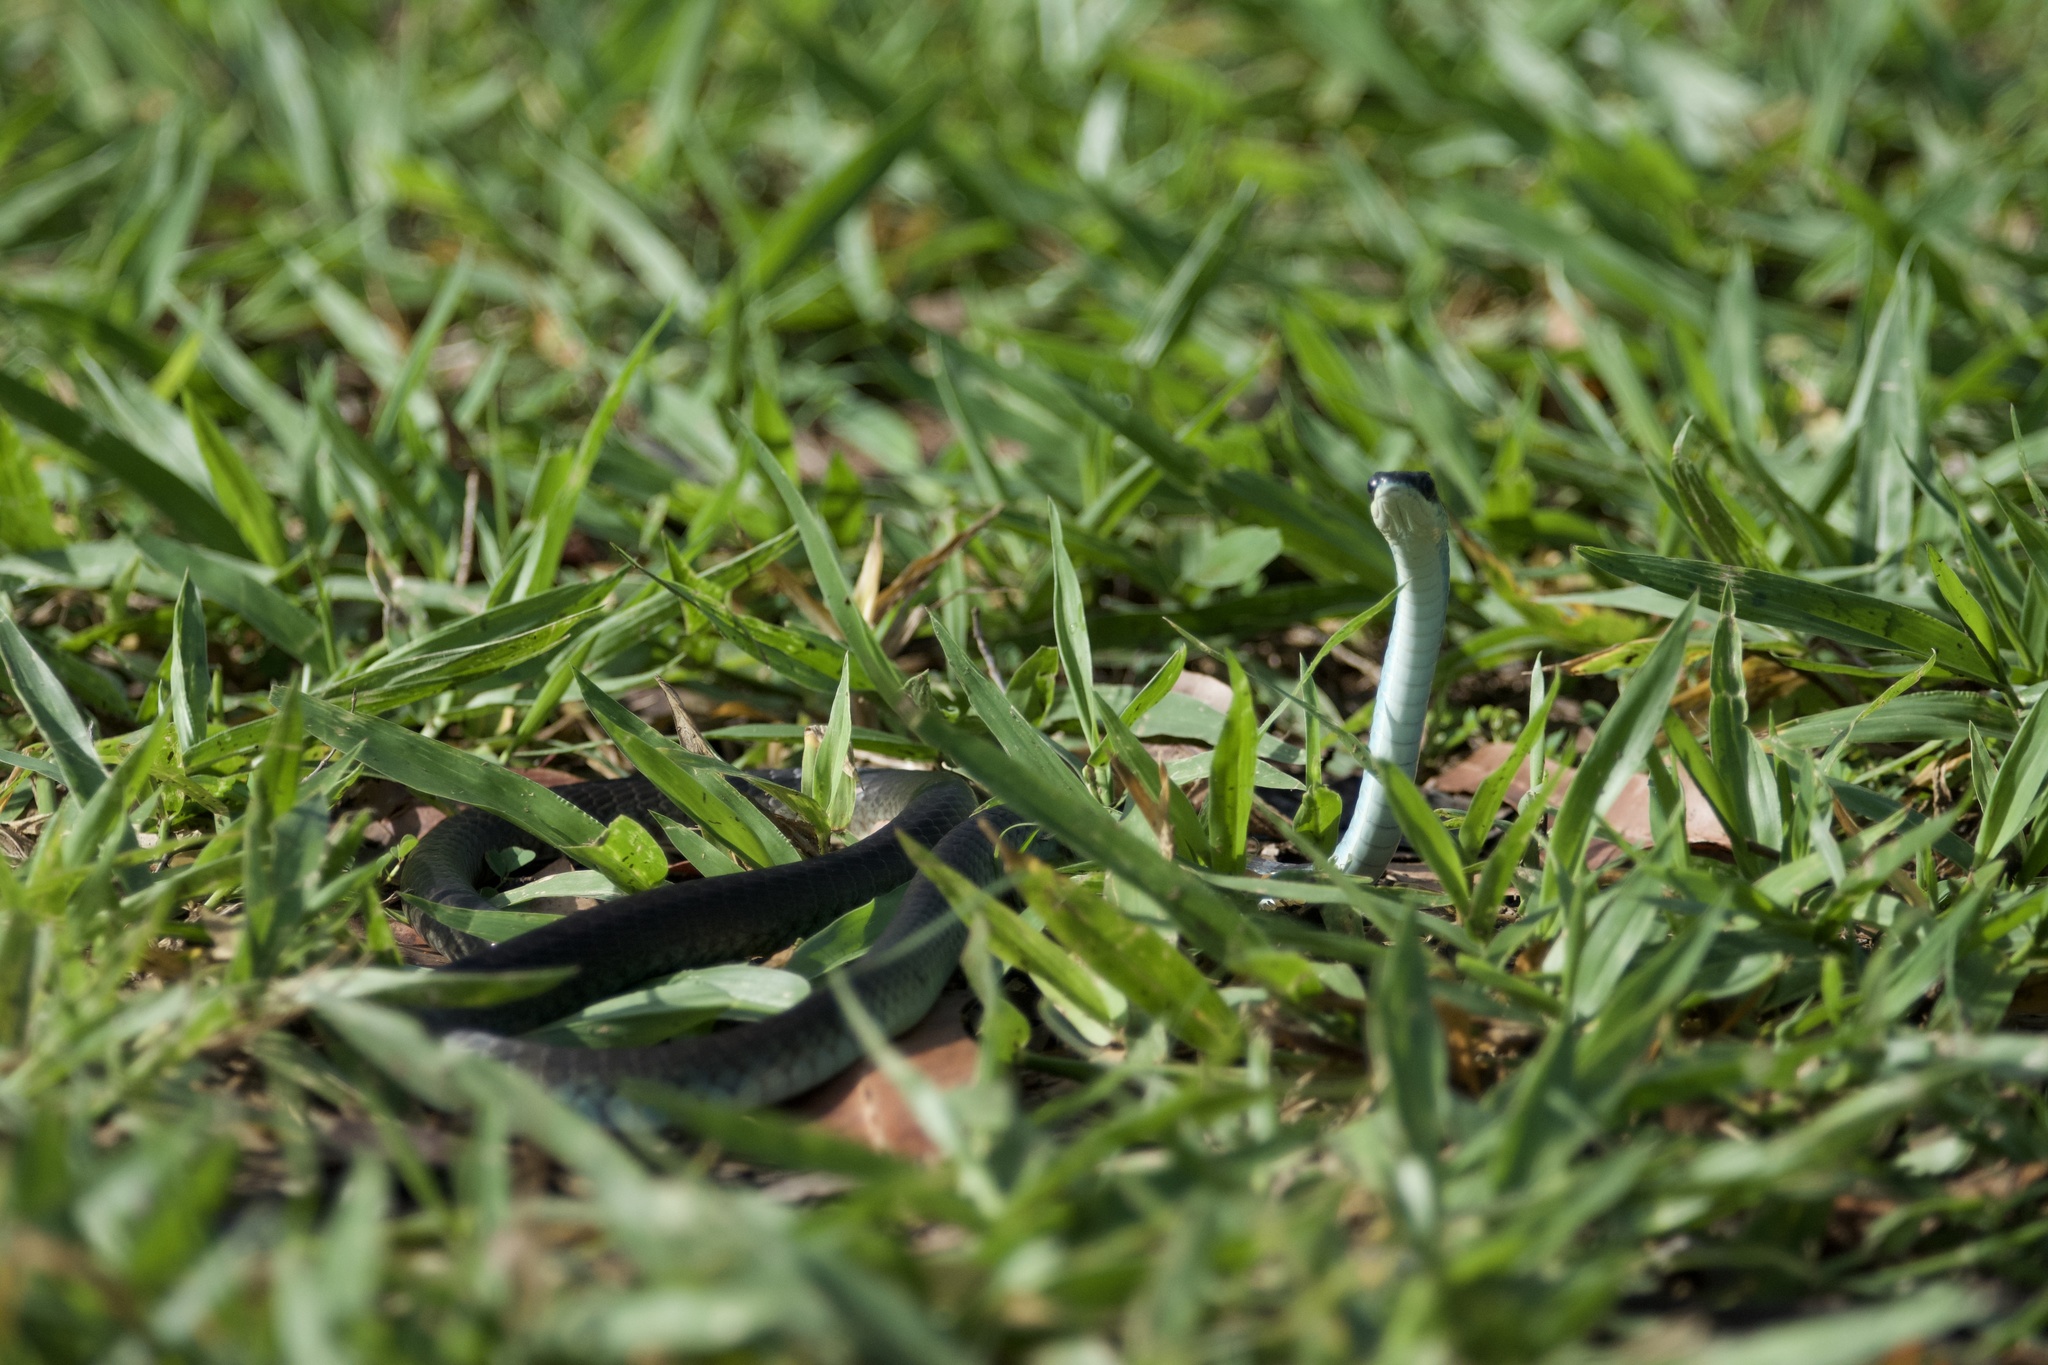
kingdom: Animalia
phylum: Chordata
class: Squamata
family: Colubridae
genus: Dendrelaphis
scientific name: Dendrelaphis punctulatus
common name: Common tree snake
